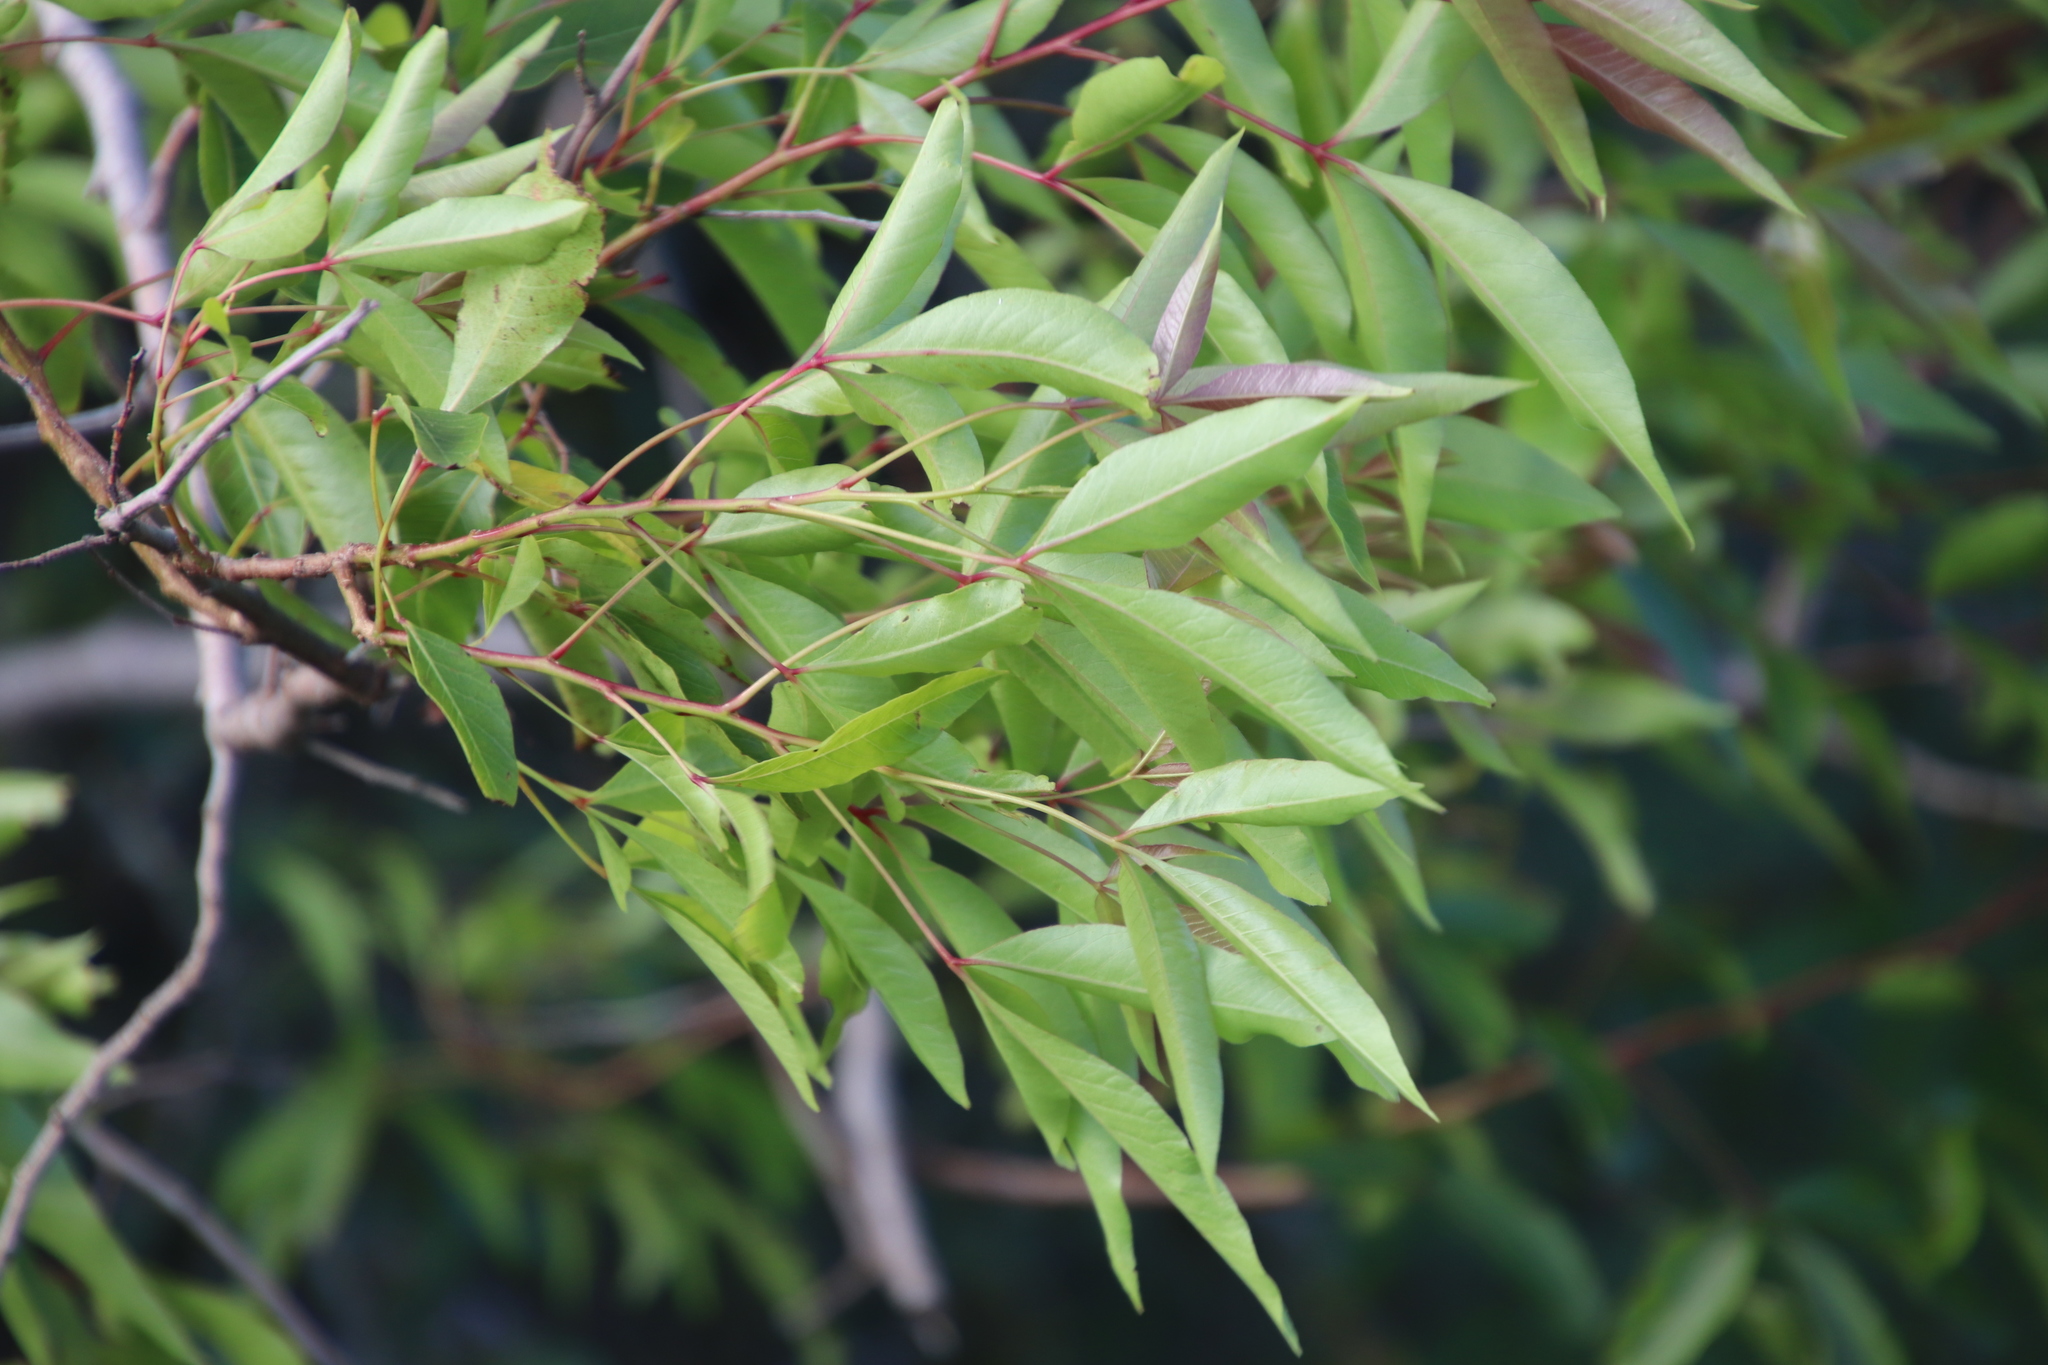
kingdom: Plantae
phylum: Tracheophyta
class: Magnoliopsida
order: Sapindales
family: Anacardiaceae
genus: Searsia
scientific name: Searsia pendulina
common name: White karee
